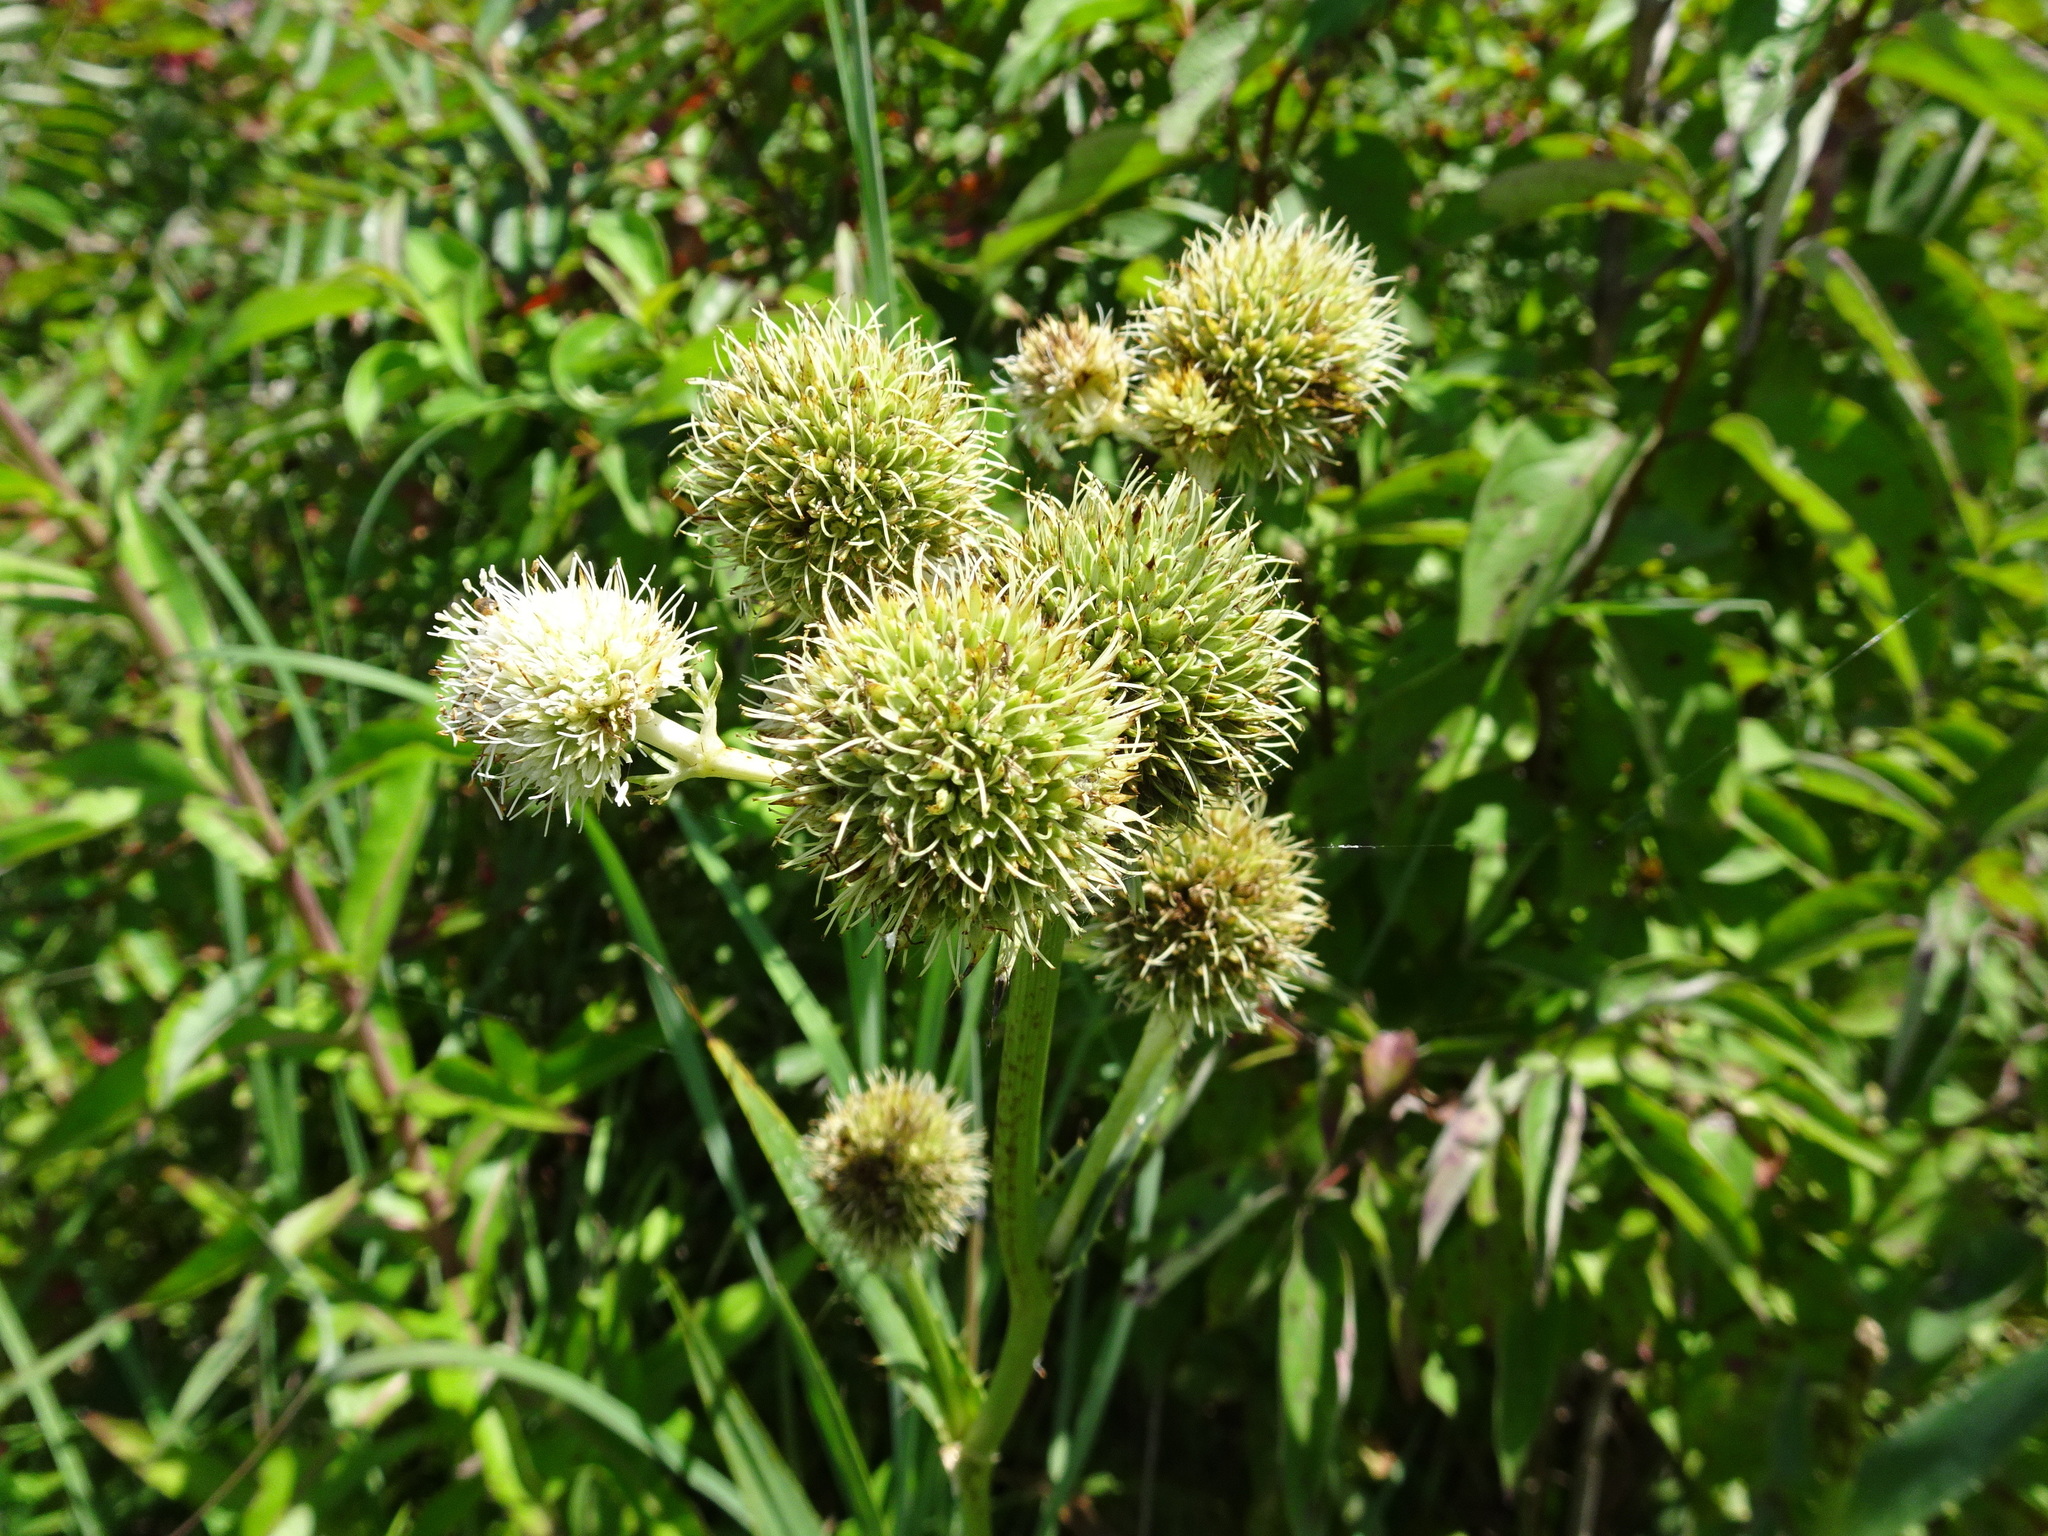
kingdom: Plantae
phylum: Tracheophyta
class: Magnoliopsida
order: Apiales
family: Apiaceae
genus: Eryngium
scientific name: Eryngium yuccifolium
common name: Button eryngo
